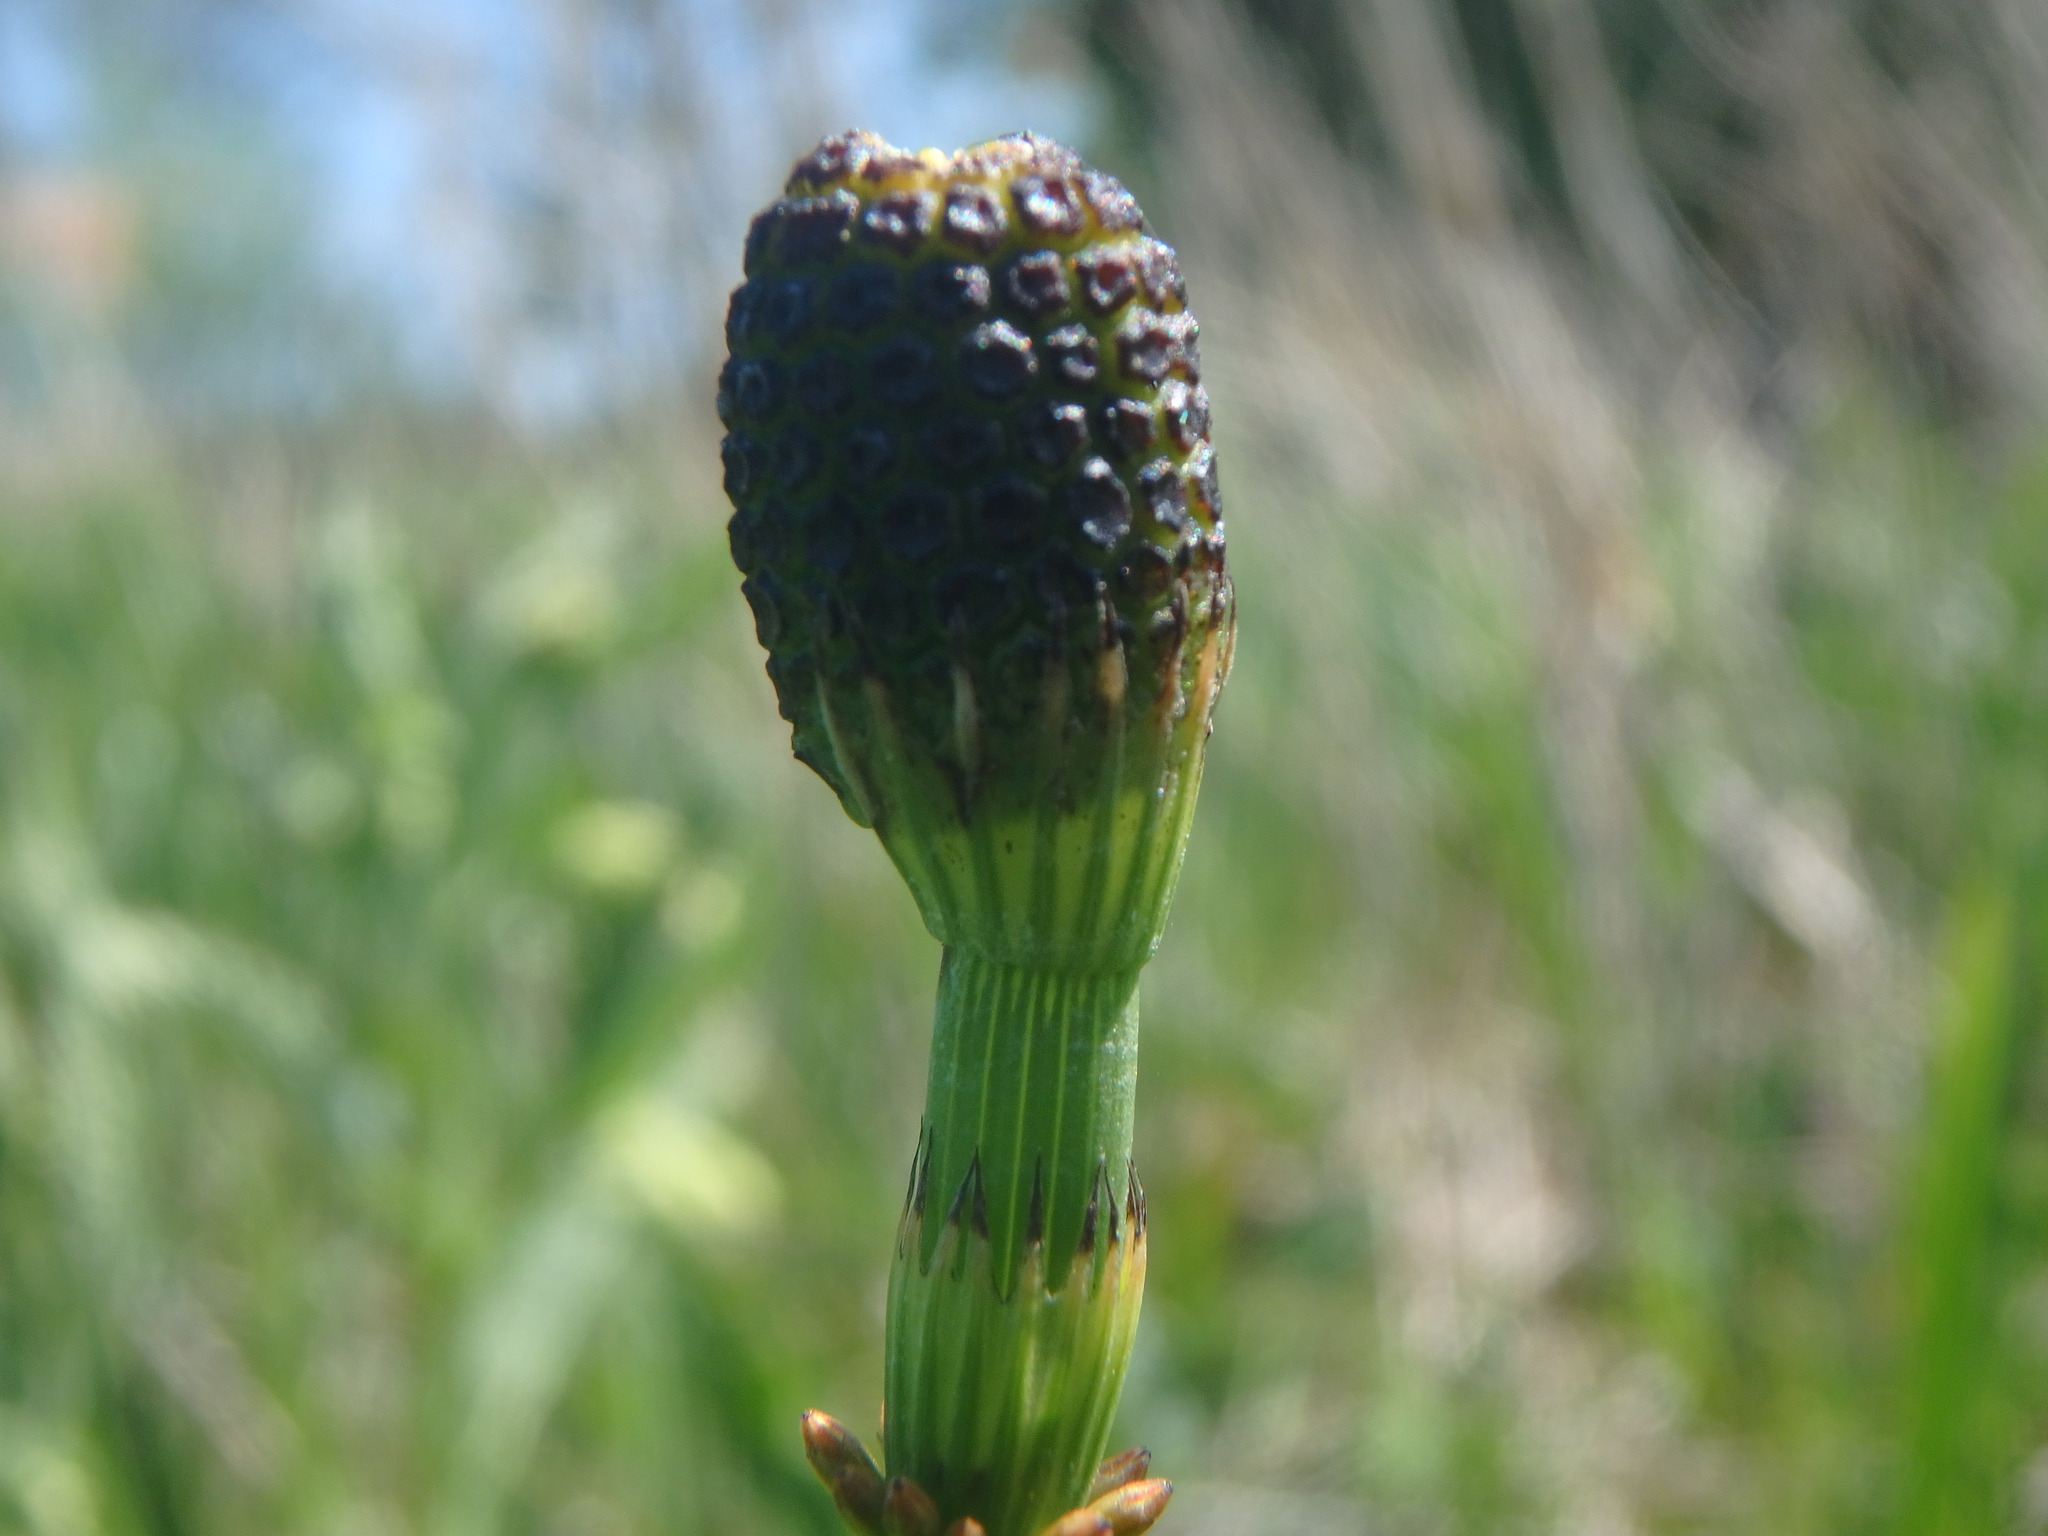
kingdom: Plantae
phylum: Tracheophyta
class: Polypodiopsida
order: Equisetales
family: Equisetaceae
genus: Equisetum
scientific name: Equisetum fluviatile
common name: Water horsetail
